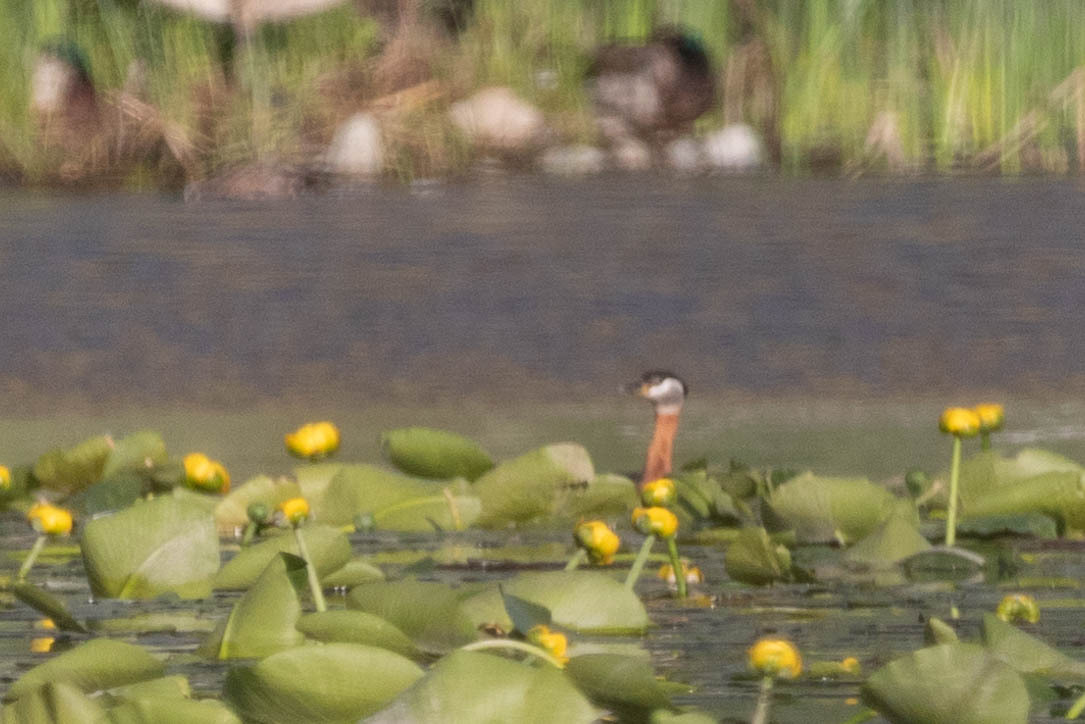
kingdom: Animalia
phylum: Chordata
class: Aves
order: Podicipediformes
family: Podicipedidae
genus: Podiceps
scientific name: Podiceps grisegena
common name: Red-necked grebe
